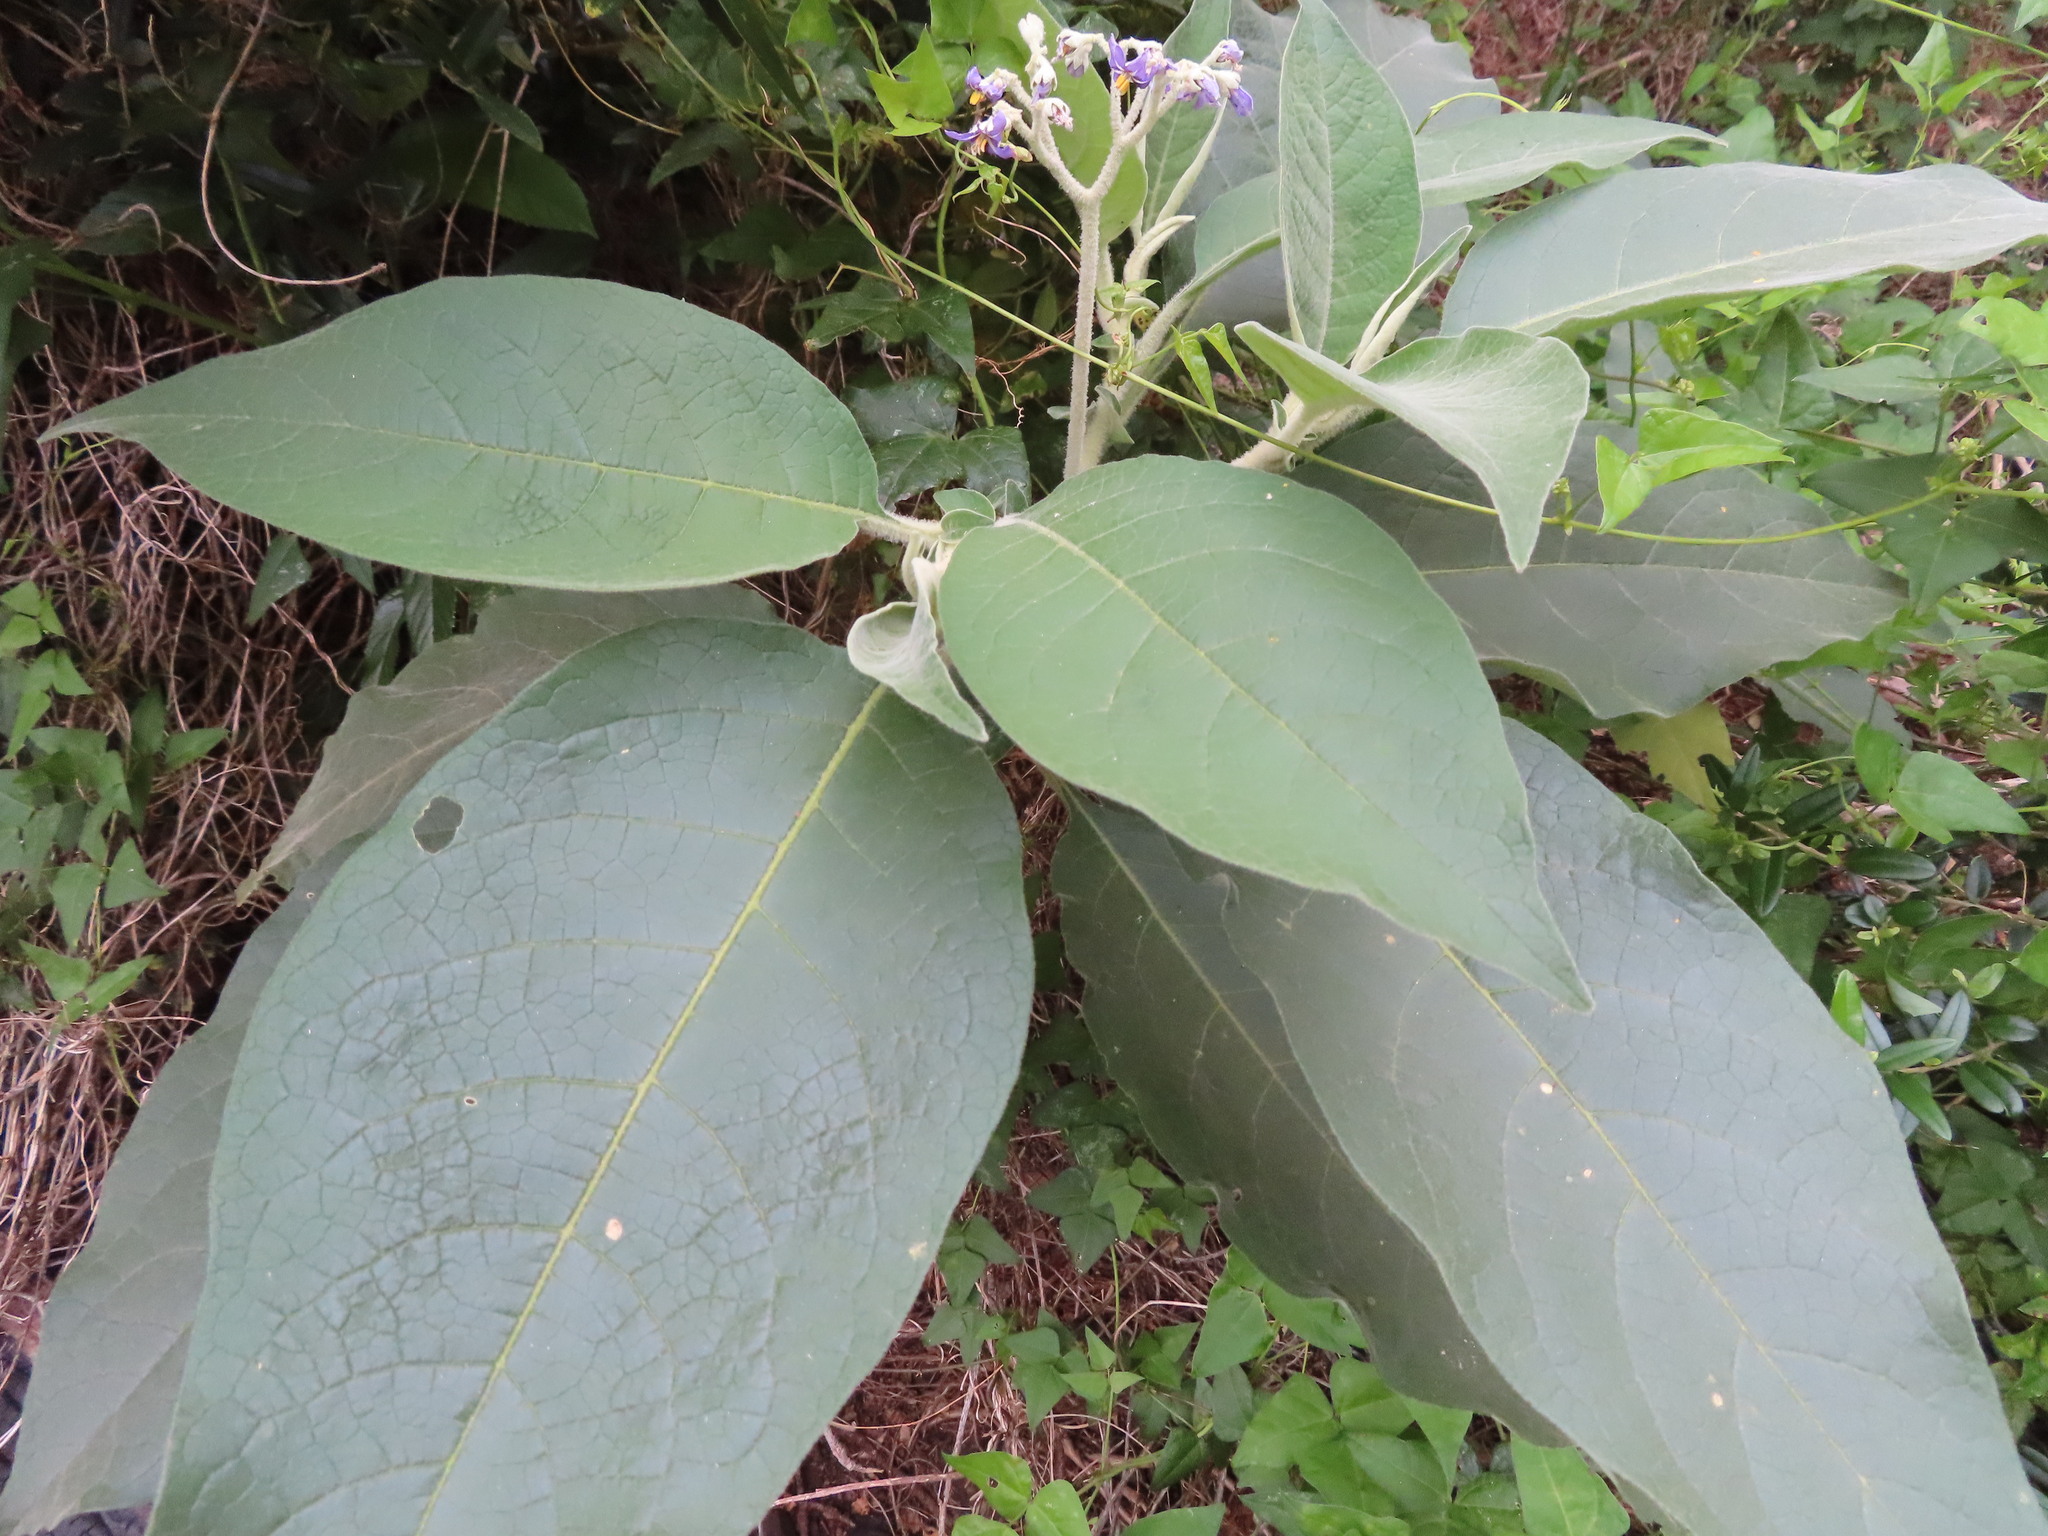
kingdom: Plantae
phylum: Tracheophyta
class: Magnoliopsida
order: Solanales
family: Solanaceae
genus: Solanum
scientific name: Solanum mauritianum
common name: Earleaf nightshade
